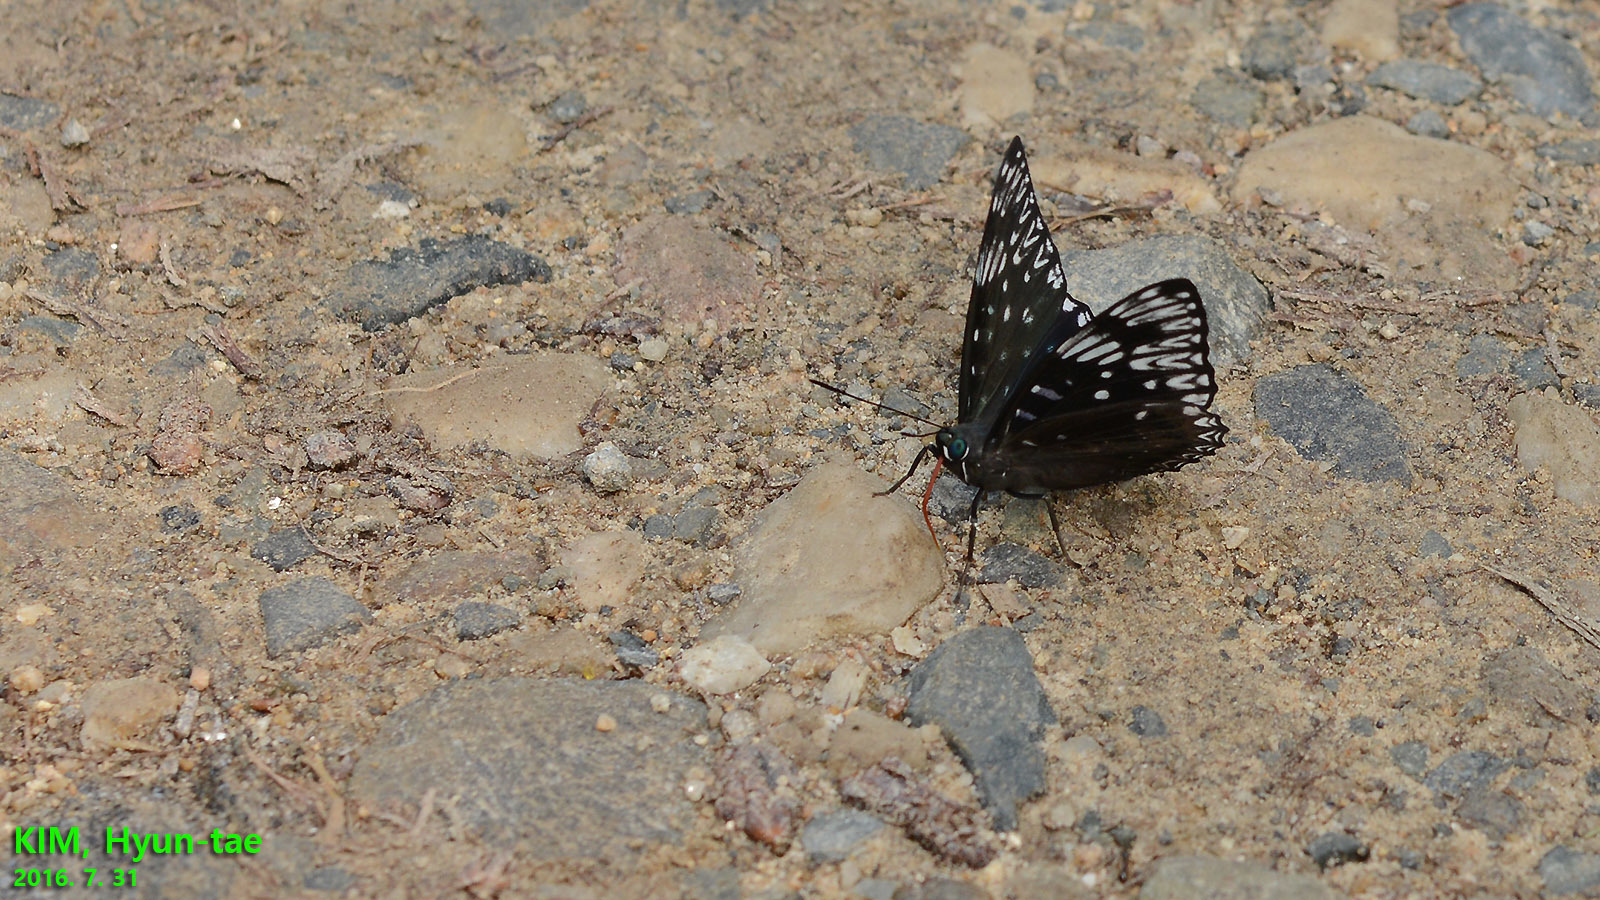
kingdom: Animalia
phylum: Arthropoda
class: Insecta
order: Lepidoptera
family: Nymphalidae
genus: Dichorragia
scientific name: Dichorragia nesimachus
